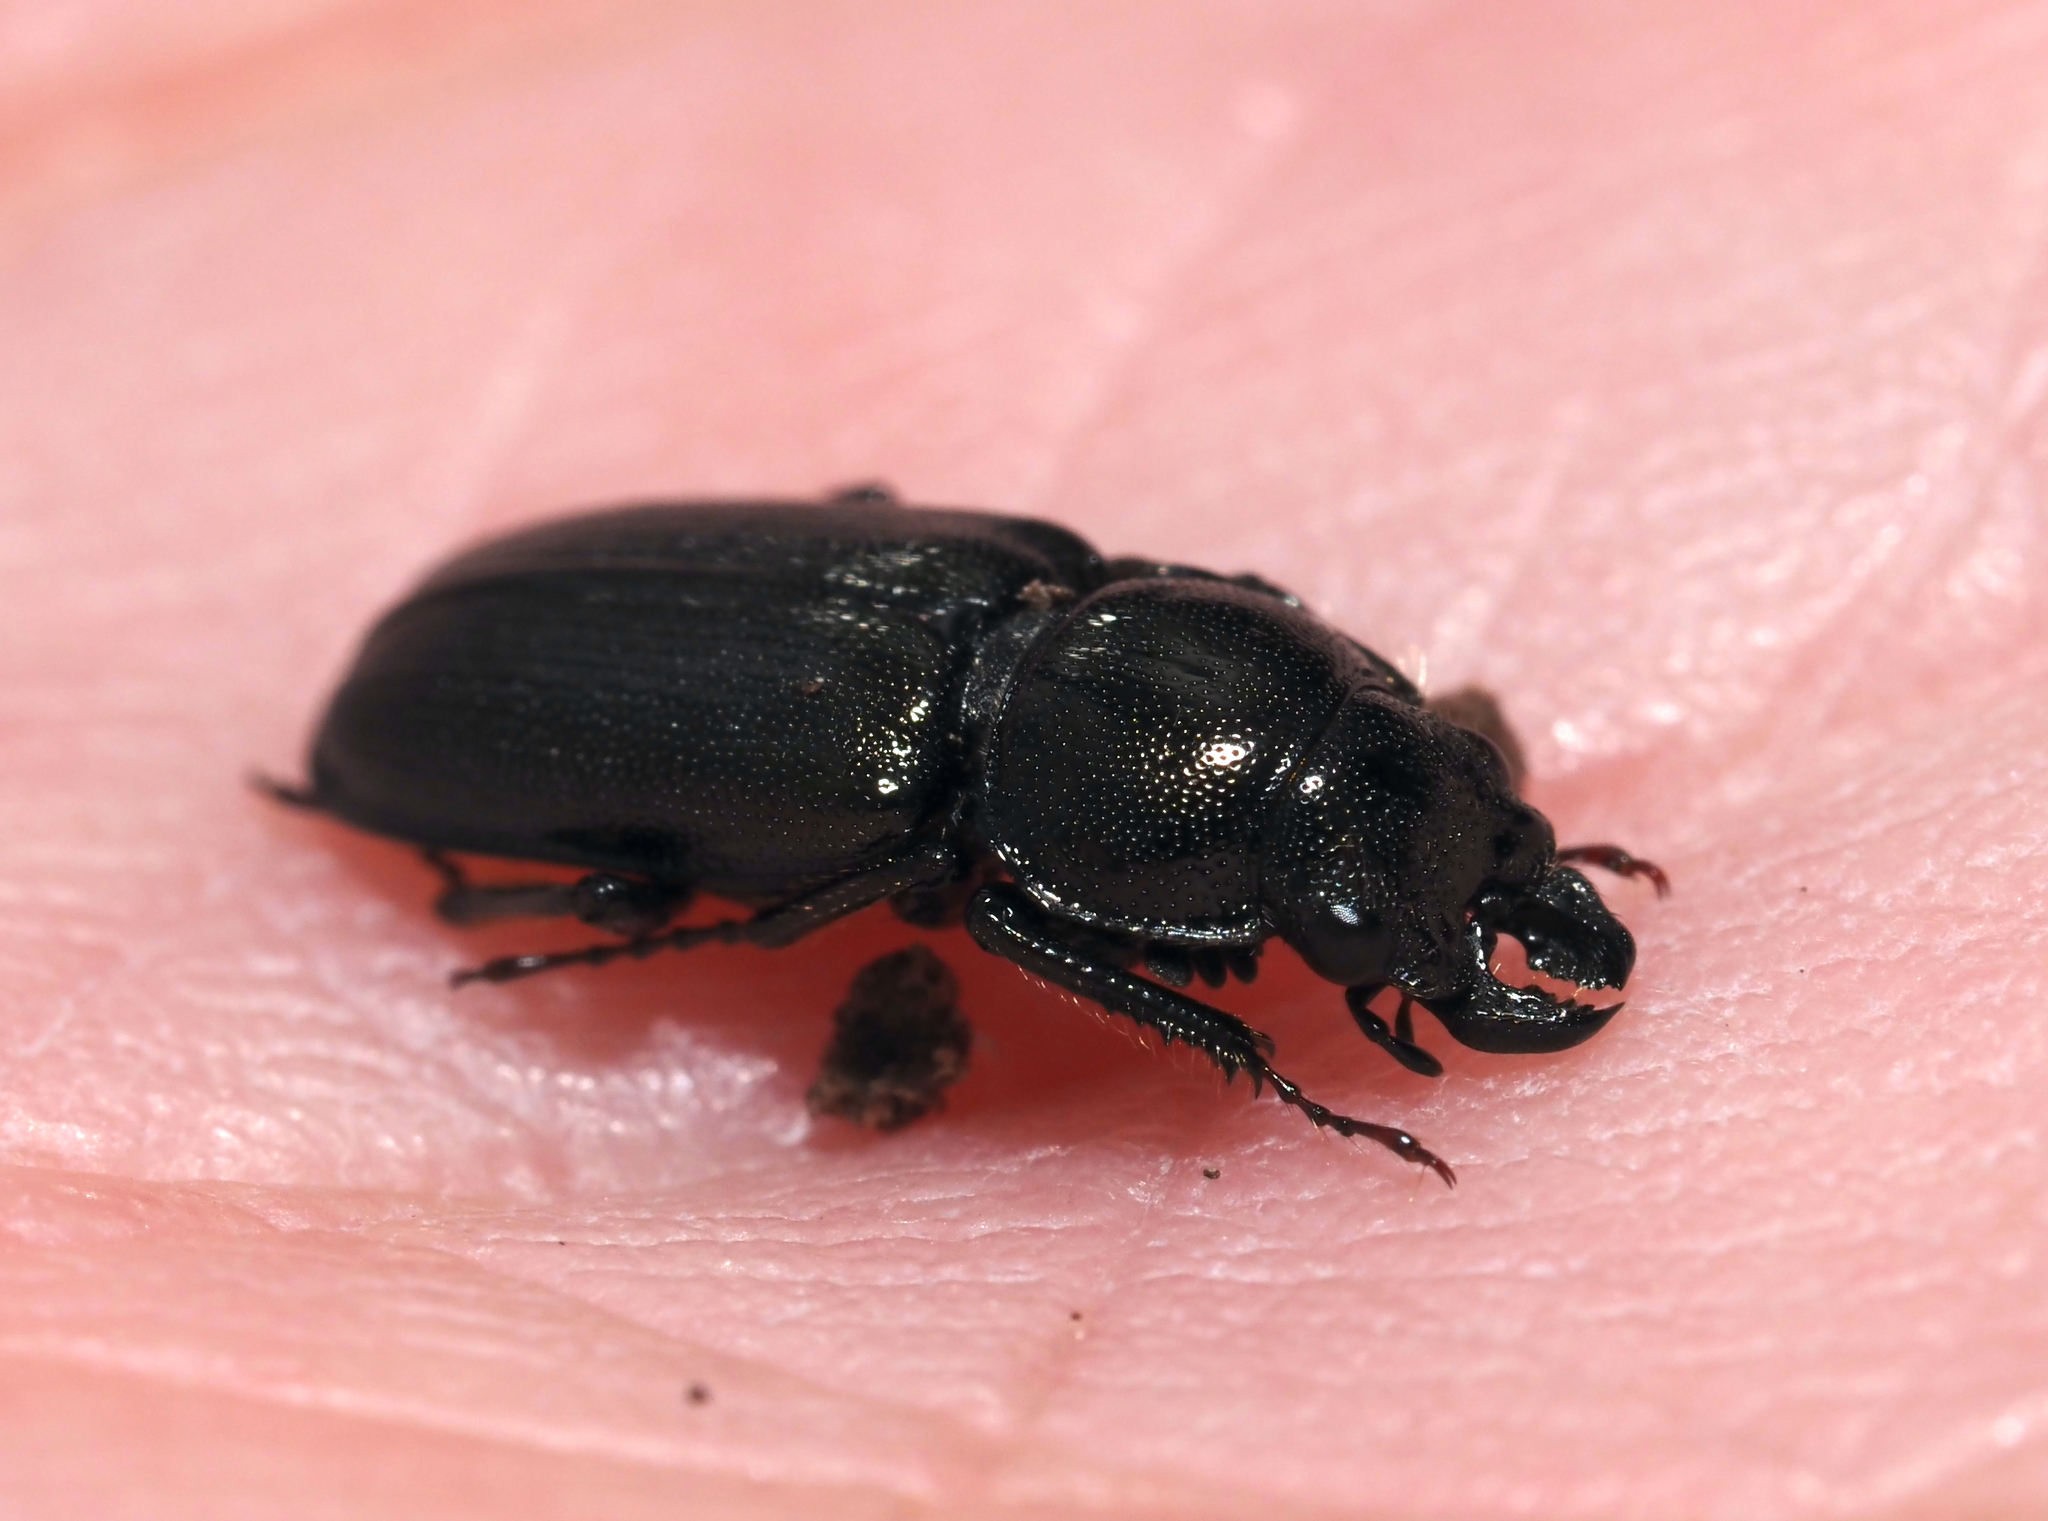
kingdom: Animalia
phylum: Arthropoda
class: Insecta
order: Coleoptera
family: Lucanidae
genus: Platycerus
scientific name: Platycerus quercus
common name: Oak stag beetle
